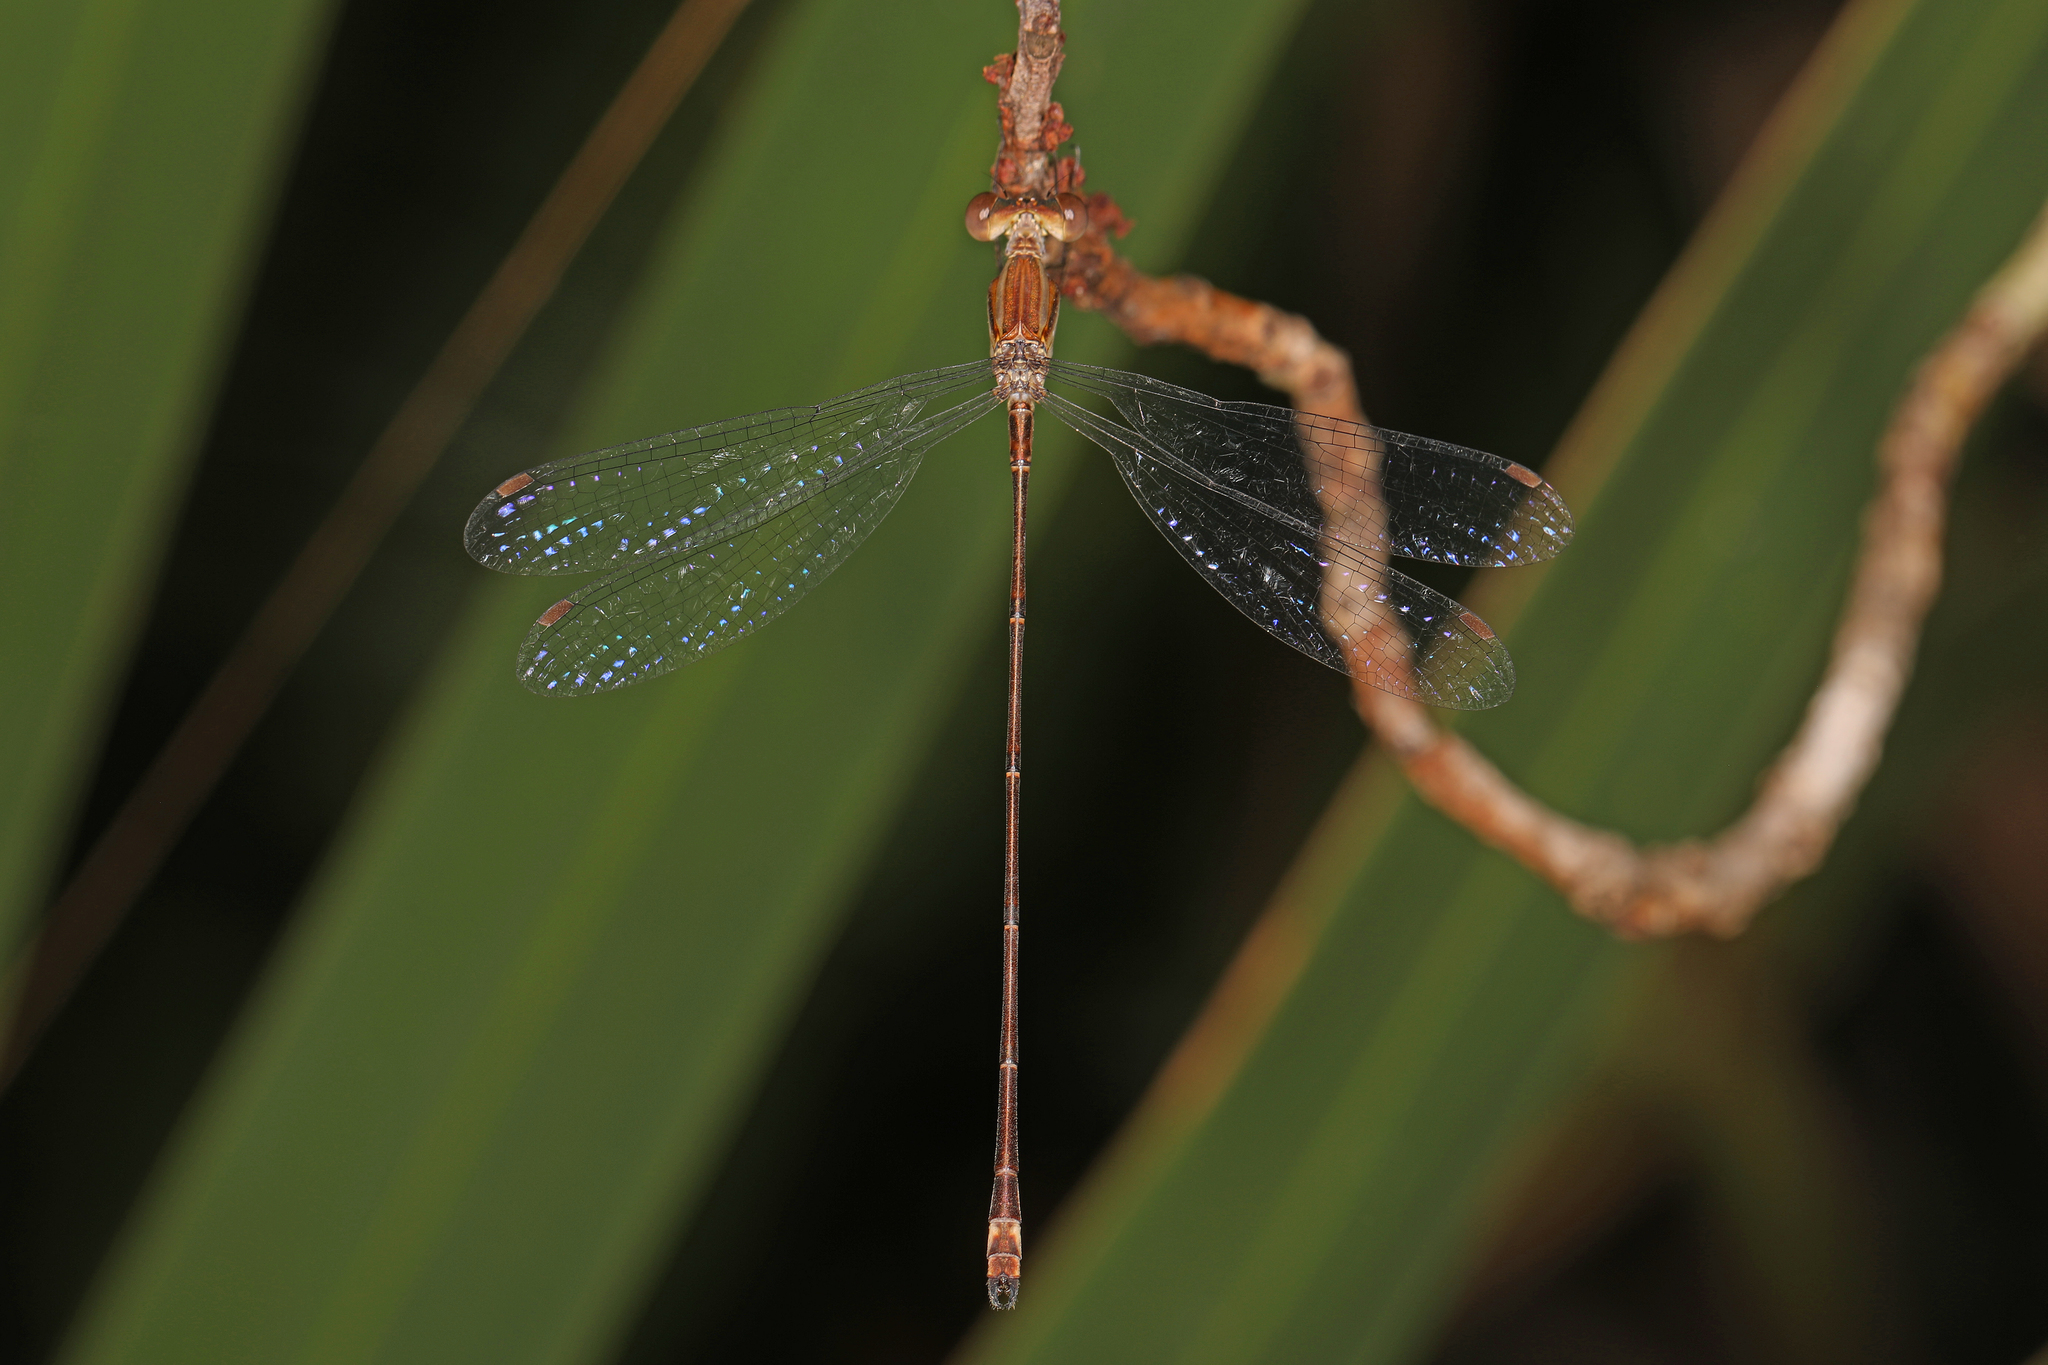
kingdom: Animalia
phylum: Arthropoda
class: Insecta
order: Odonata
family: Lestidae
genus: Lestes
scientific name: Lestes tenuatus
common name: Blue-striped spreadwing
